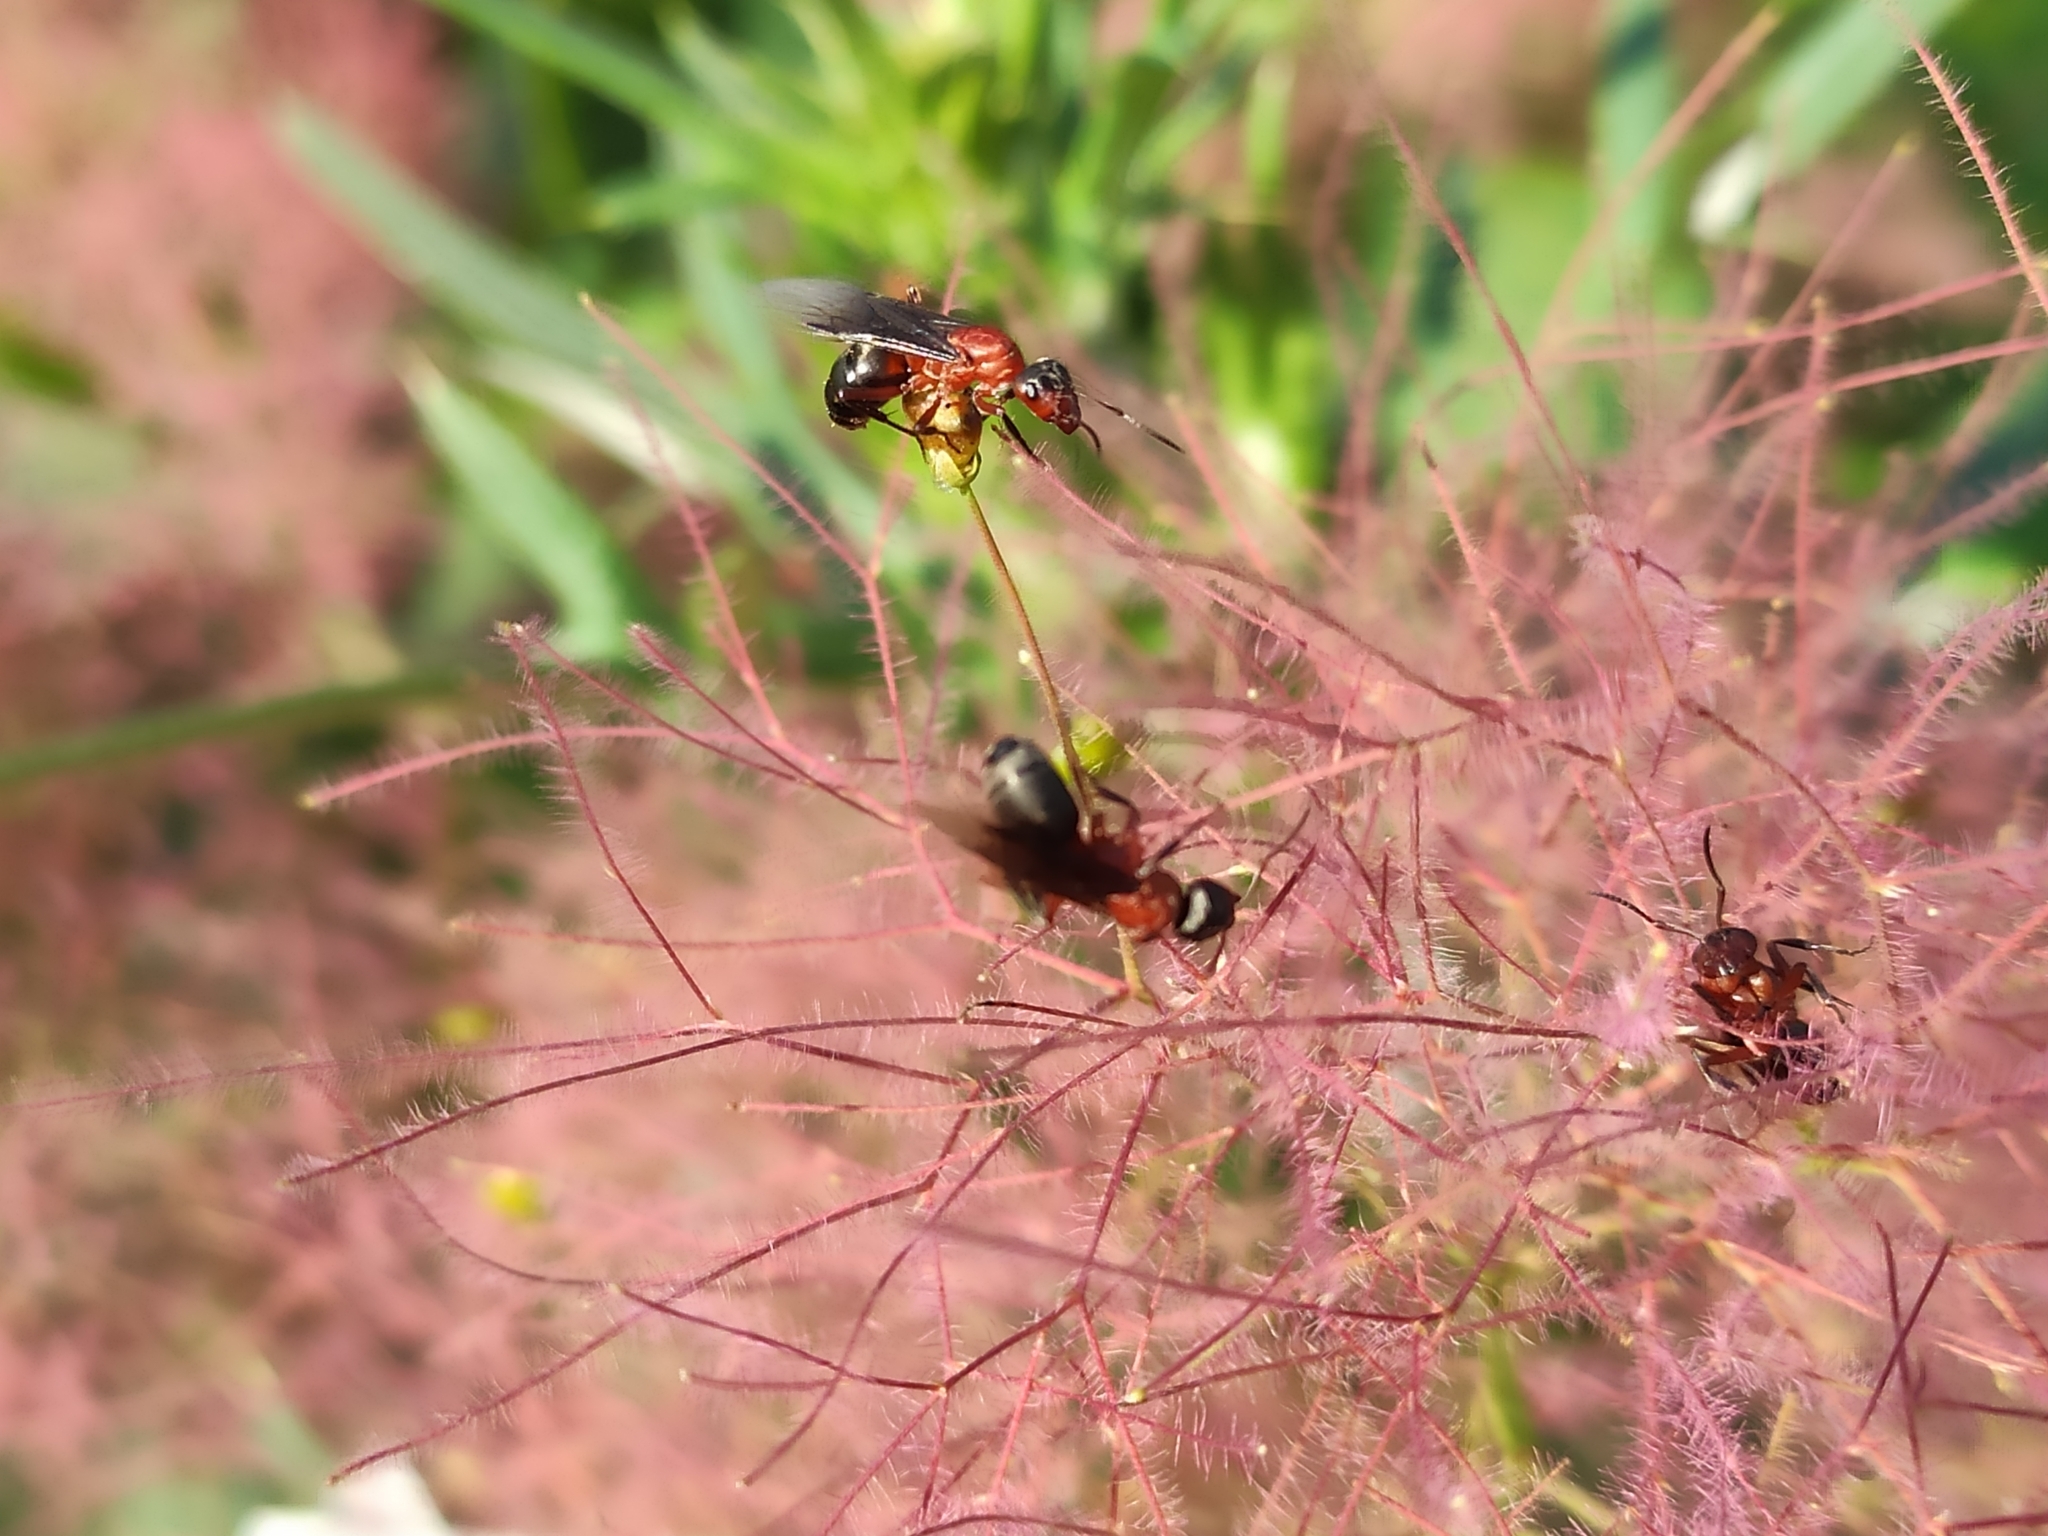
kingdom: Animalia
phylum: Arthropoda
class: Insecta
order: Hymenoptera
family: Formicidae
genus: Formica
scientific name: Formica sanguinea
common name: Blood-red ant
